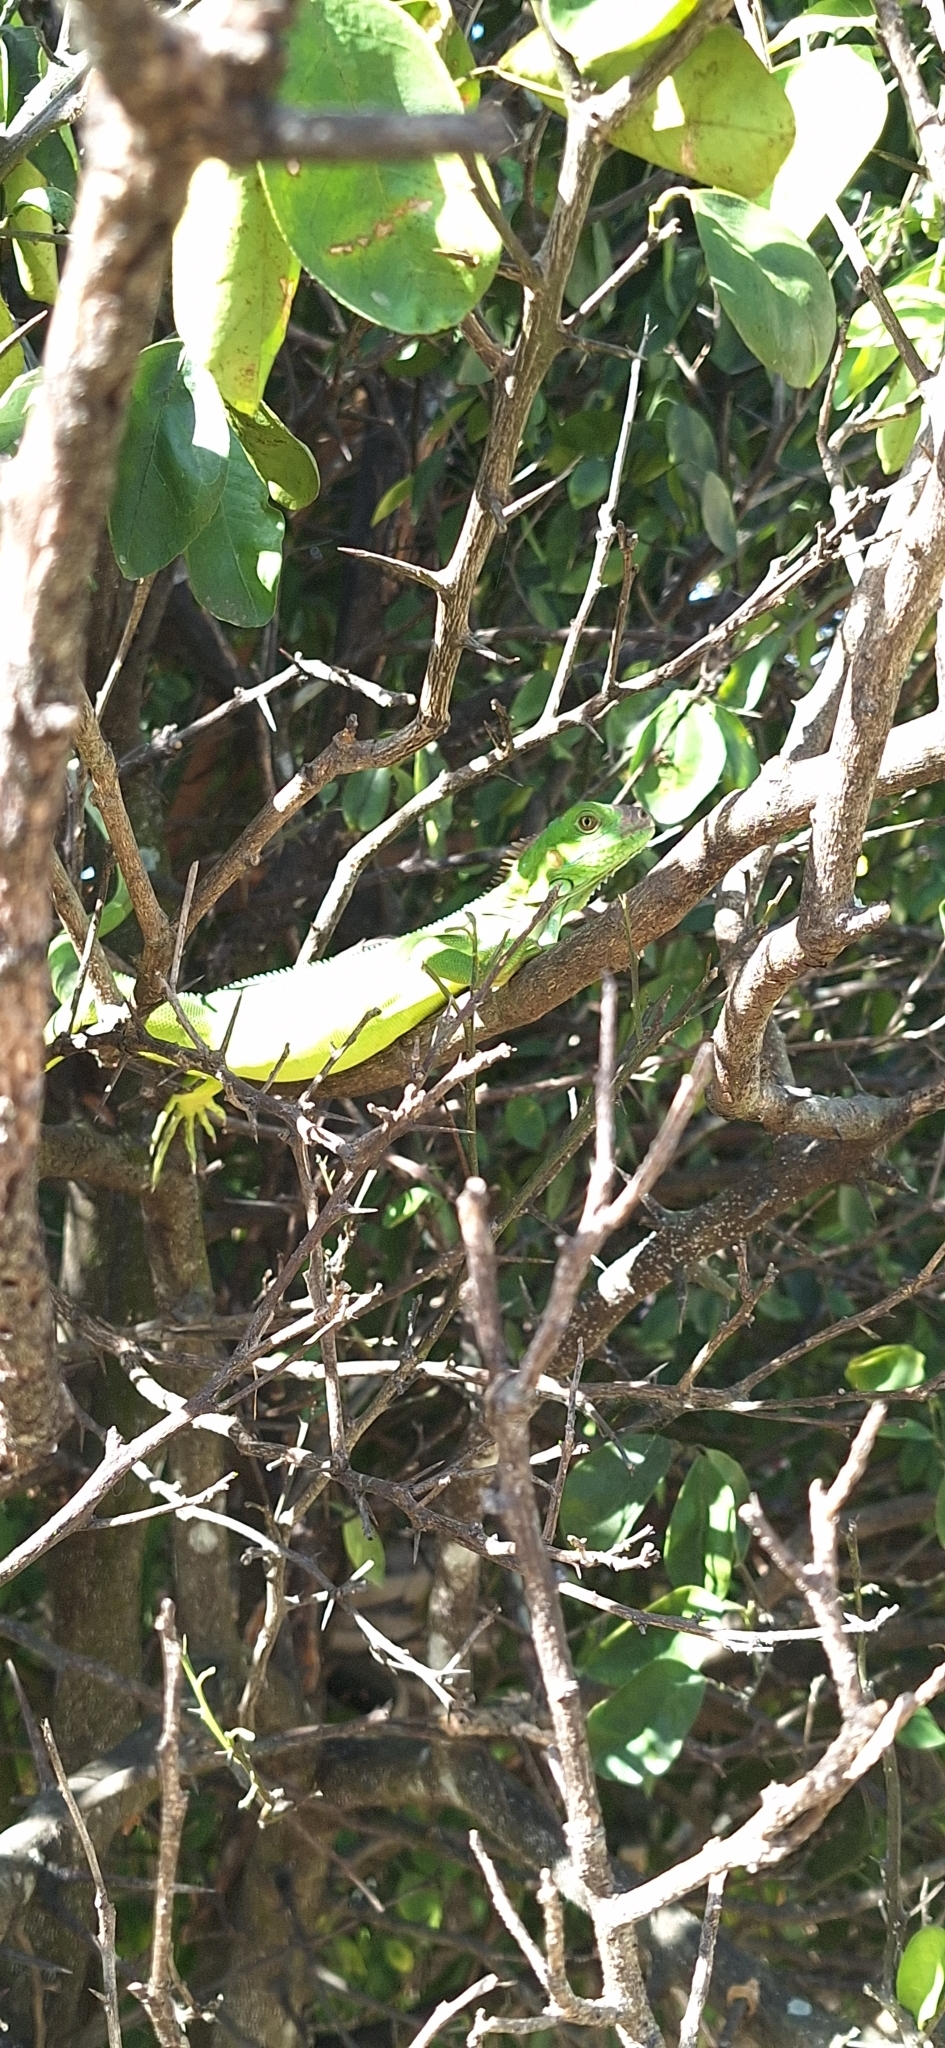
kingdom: Animalia
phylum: Chordata
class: Squamata
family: Iguanidae
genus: Iguana
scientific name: Iguana iguana
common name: Green iguana
